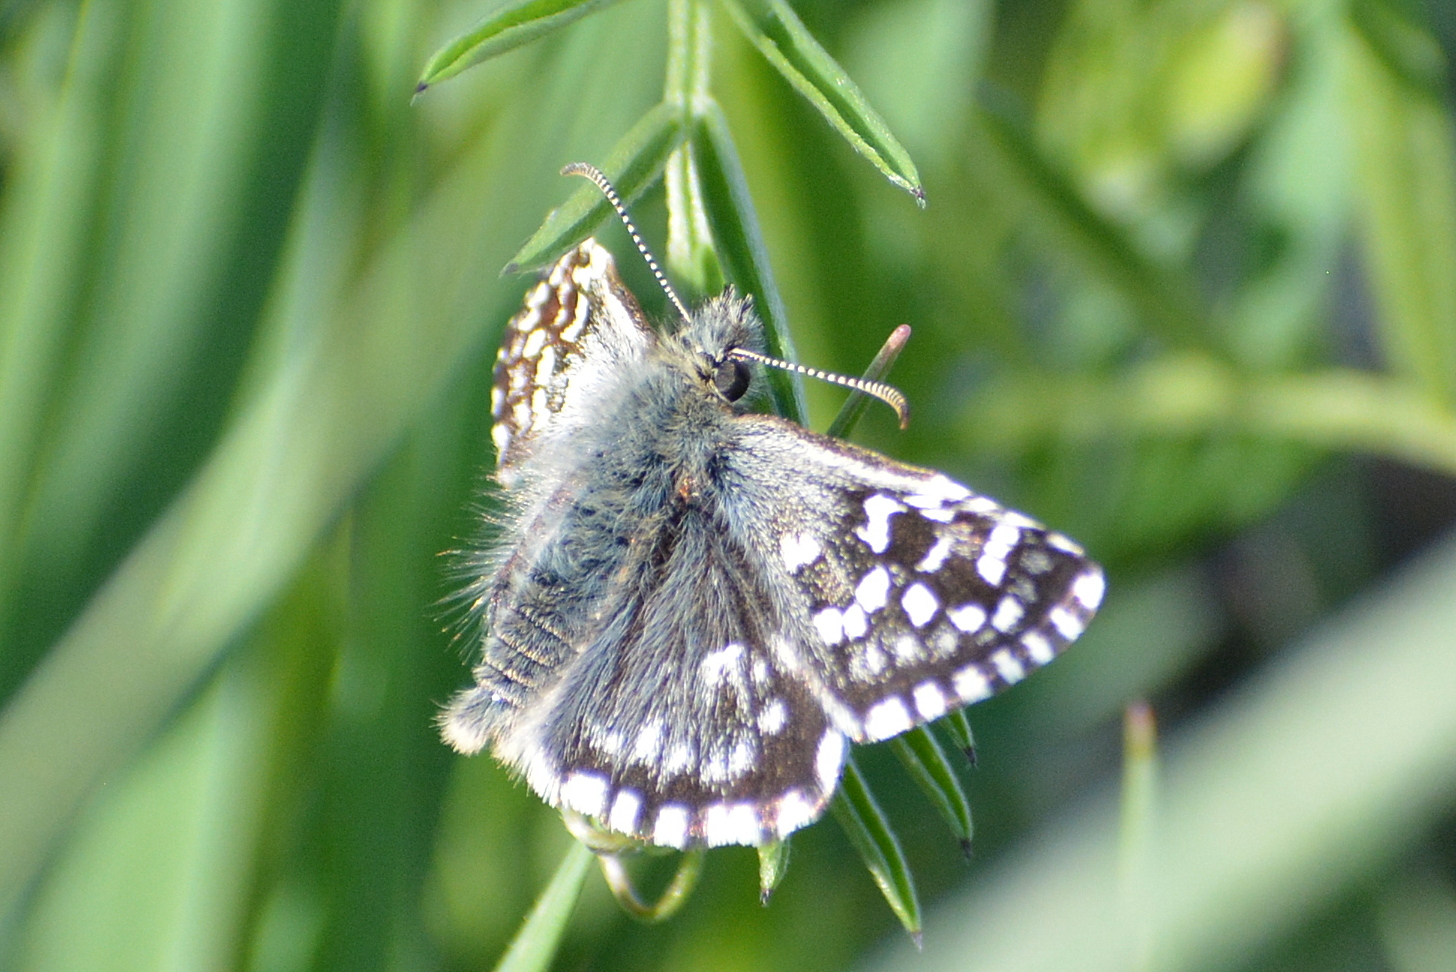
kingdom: Animalia
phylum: Arthropoda
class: Insecta
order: Lepidoptera
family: Hesperiidae
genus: Pyrgus
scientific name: Pyrgus malvae
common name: Grizzled skipper
